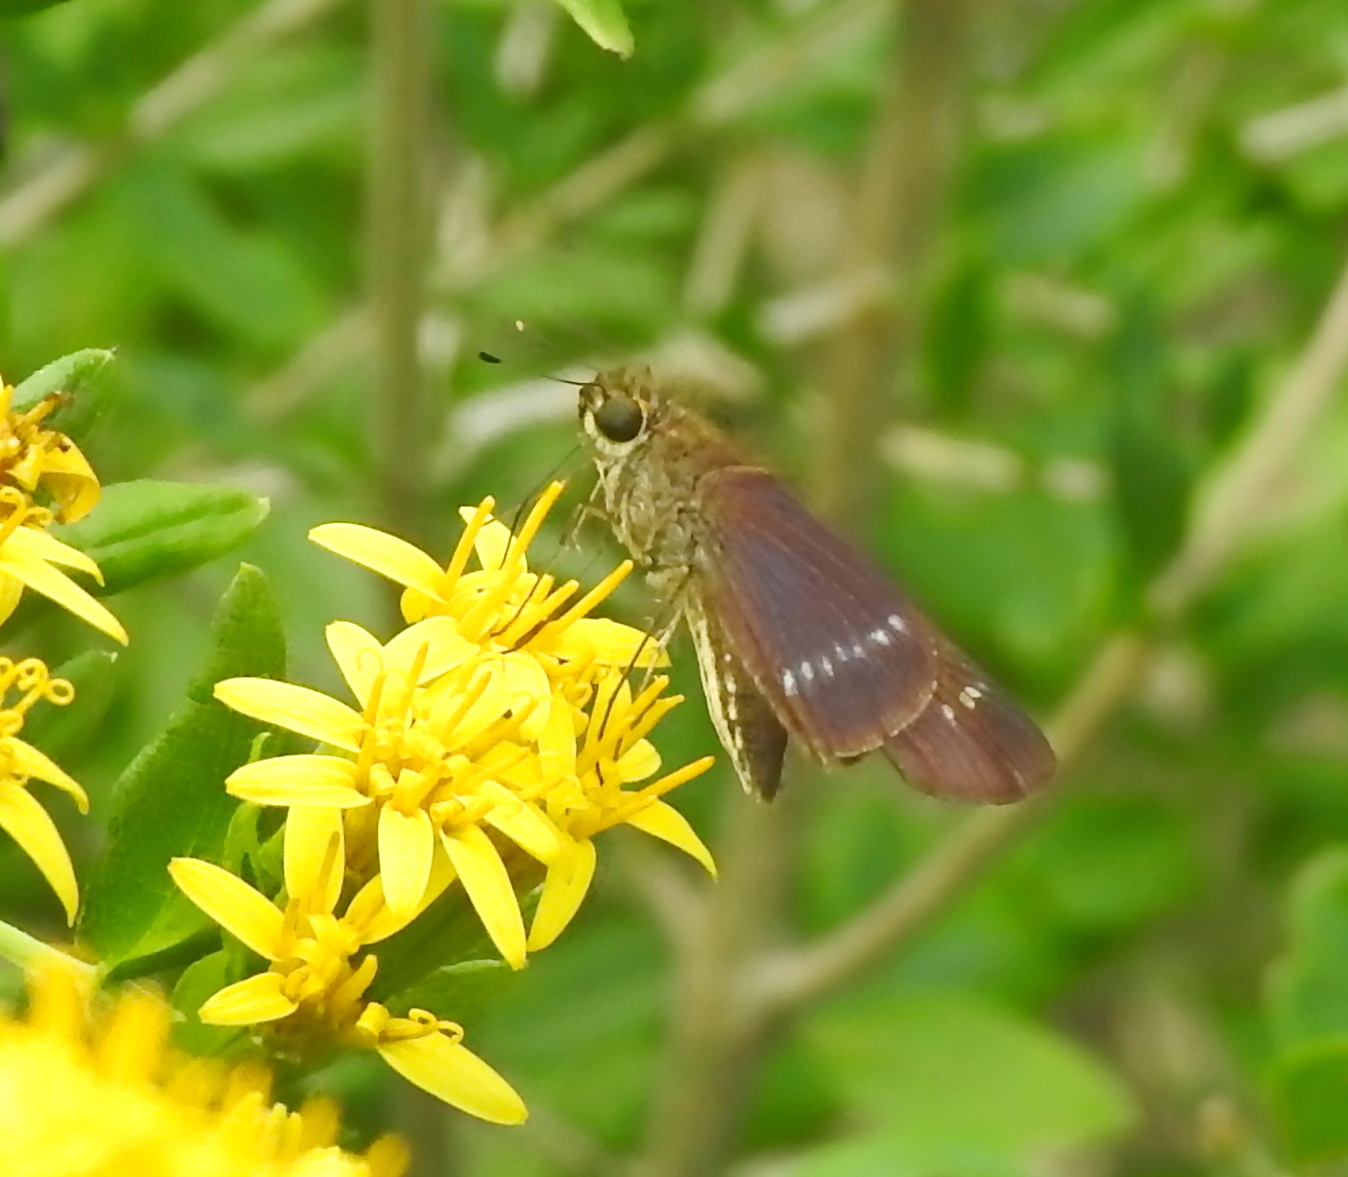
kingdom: Animalia
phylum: Arthropoda
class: Insecta
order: Lepidoptera
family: Hesperiidae
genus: Turesis
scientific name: Turesis lucas
